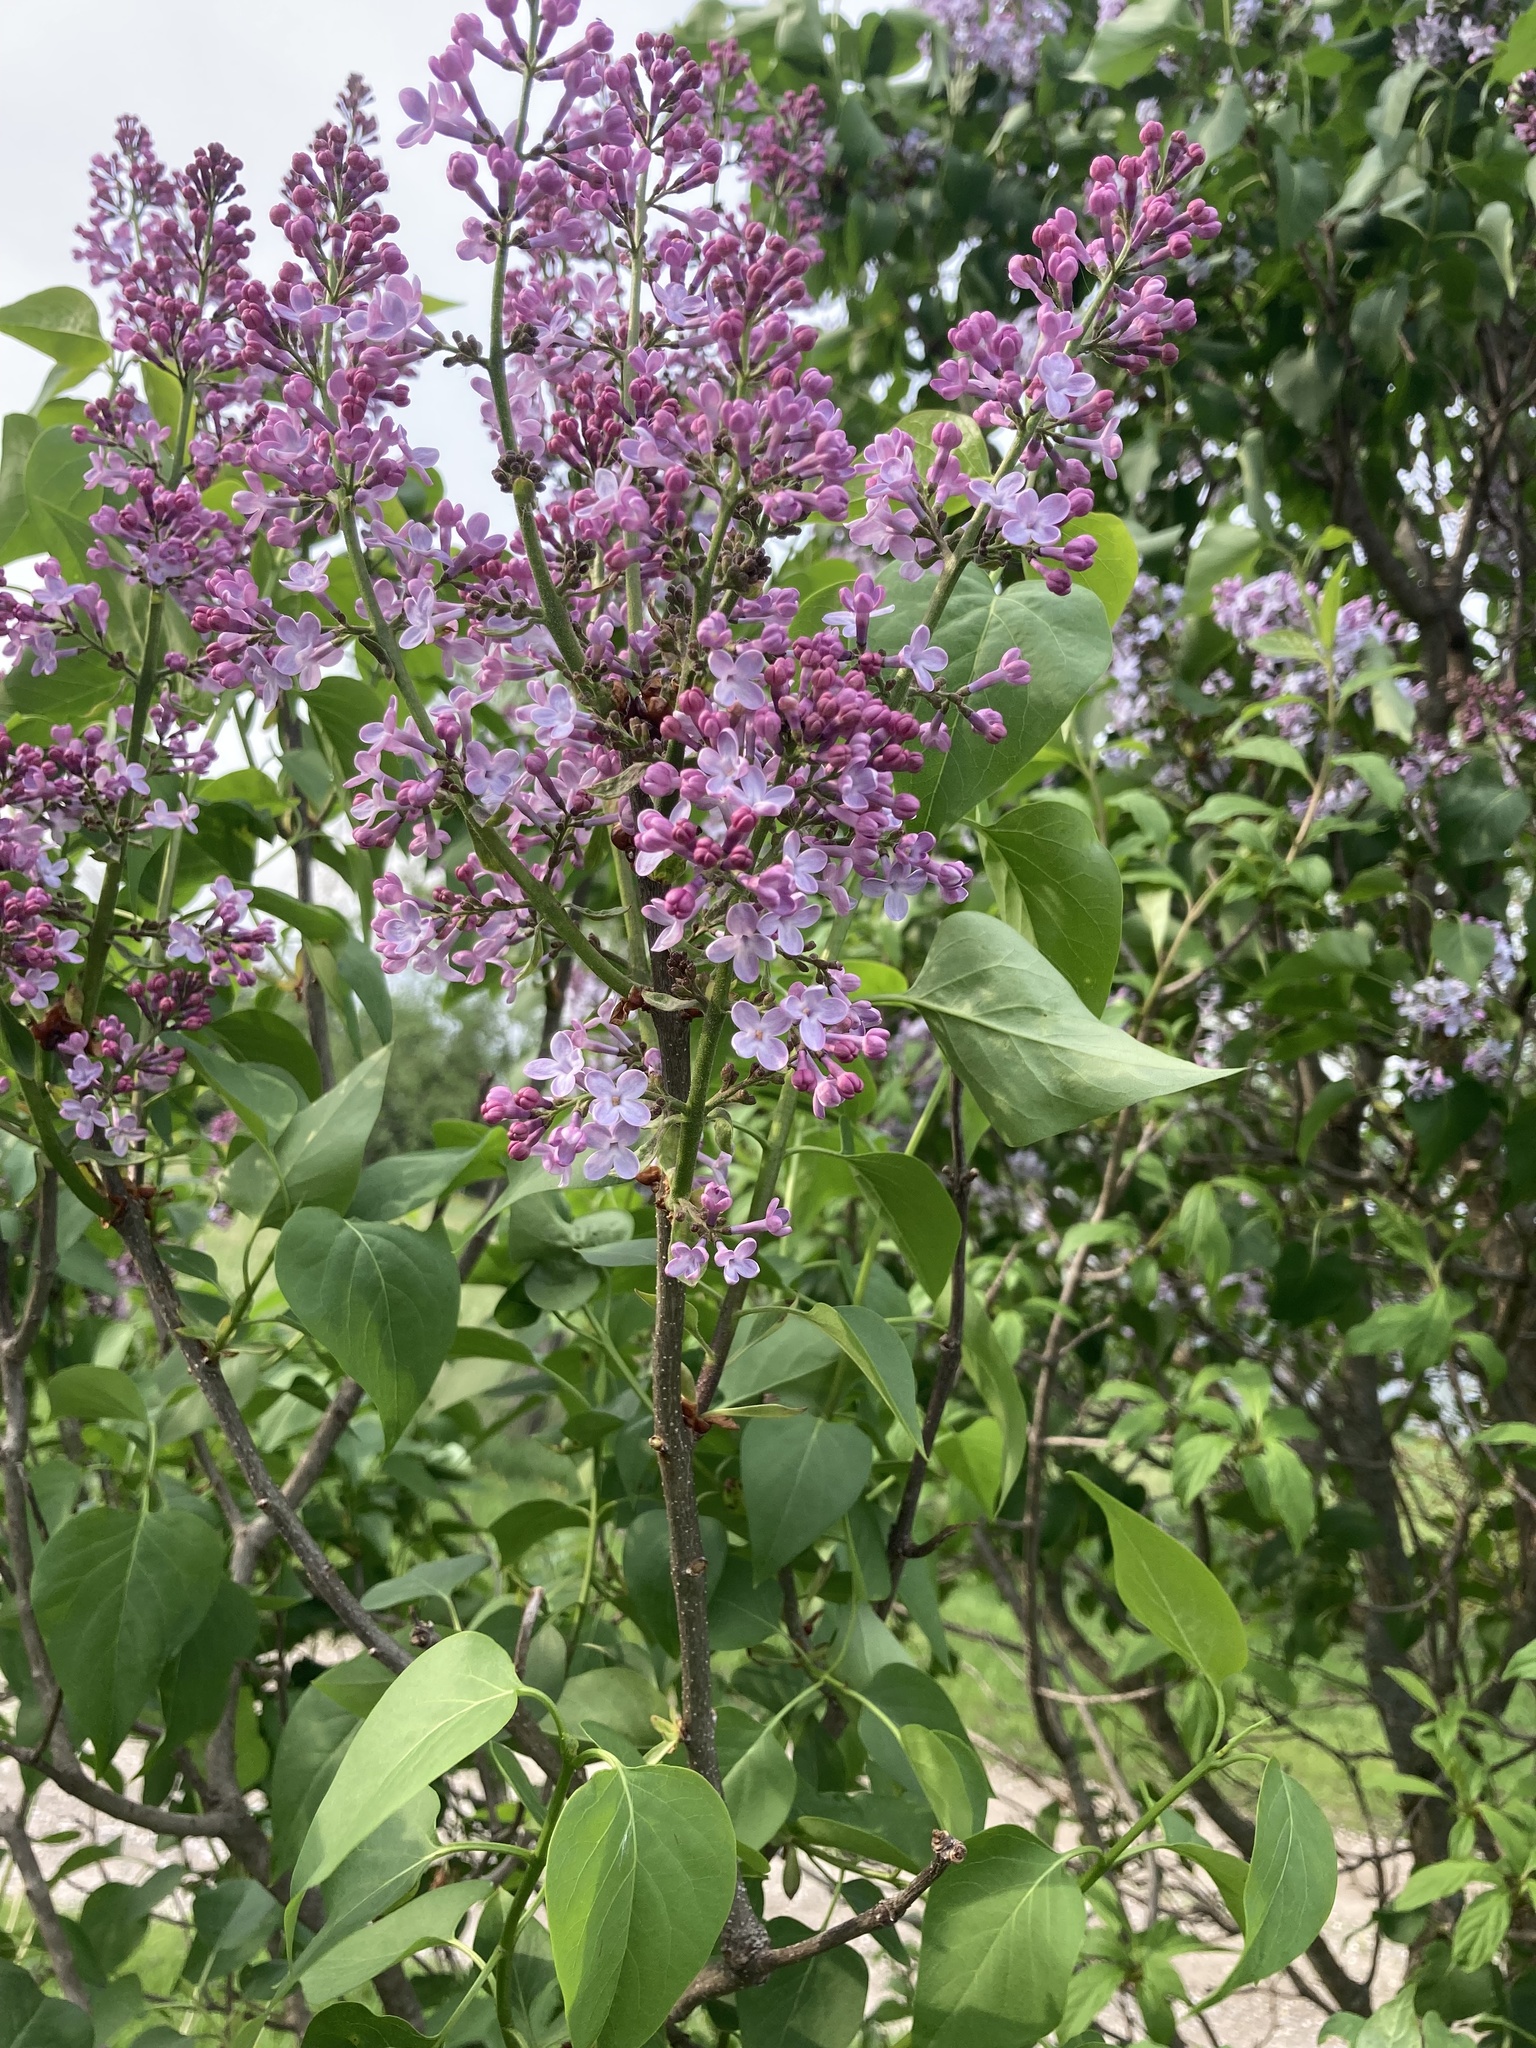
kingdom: Plantae
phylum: Tracheophyta
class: Magnoliopsida
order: Lamiales
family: Oleaceae
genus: Syringa
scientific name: Syringa vulgaris
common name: Common lilac
